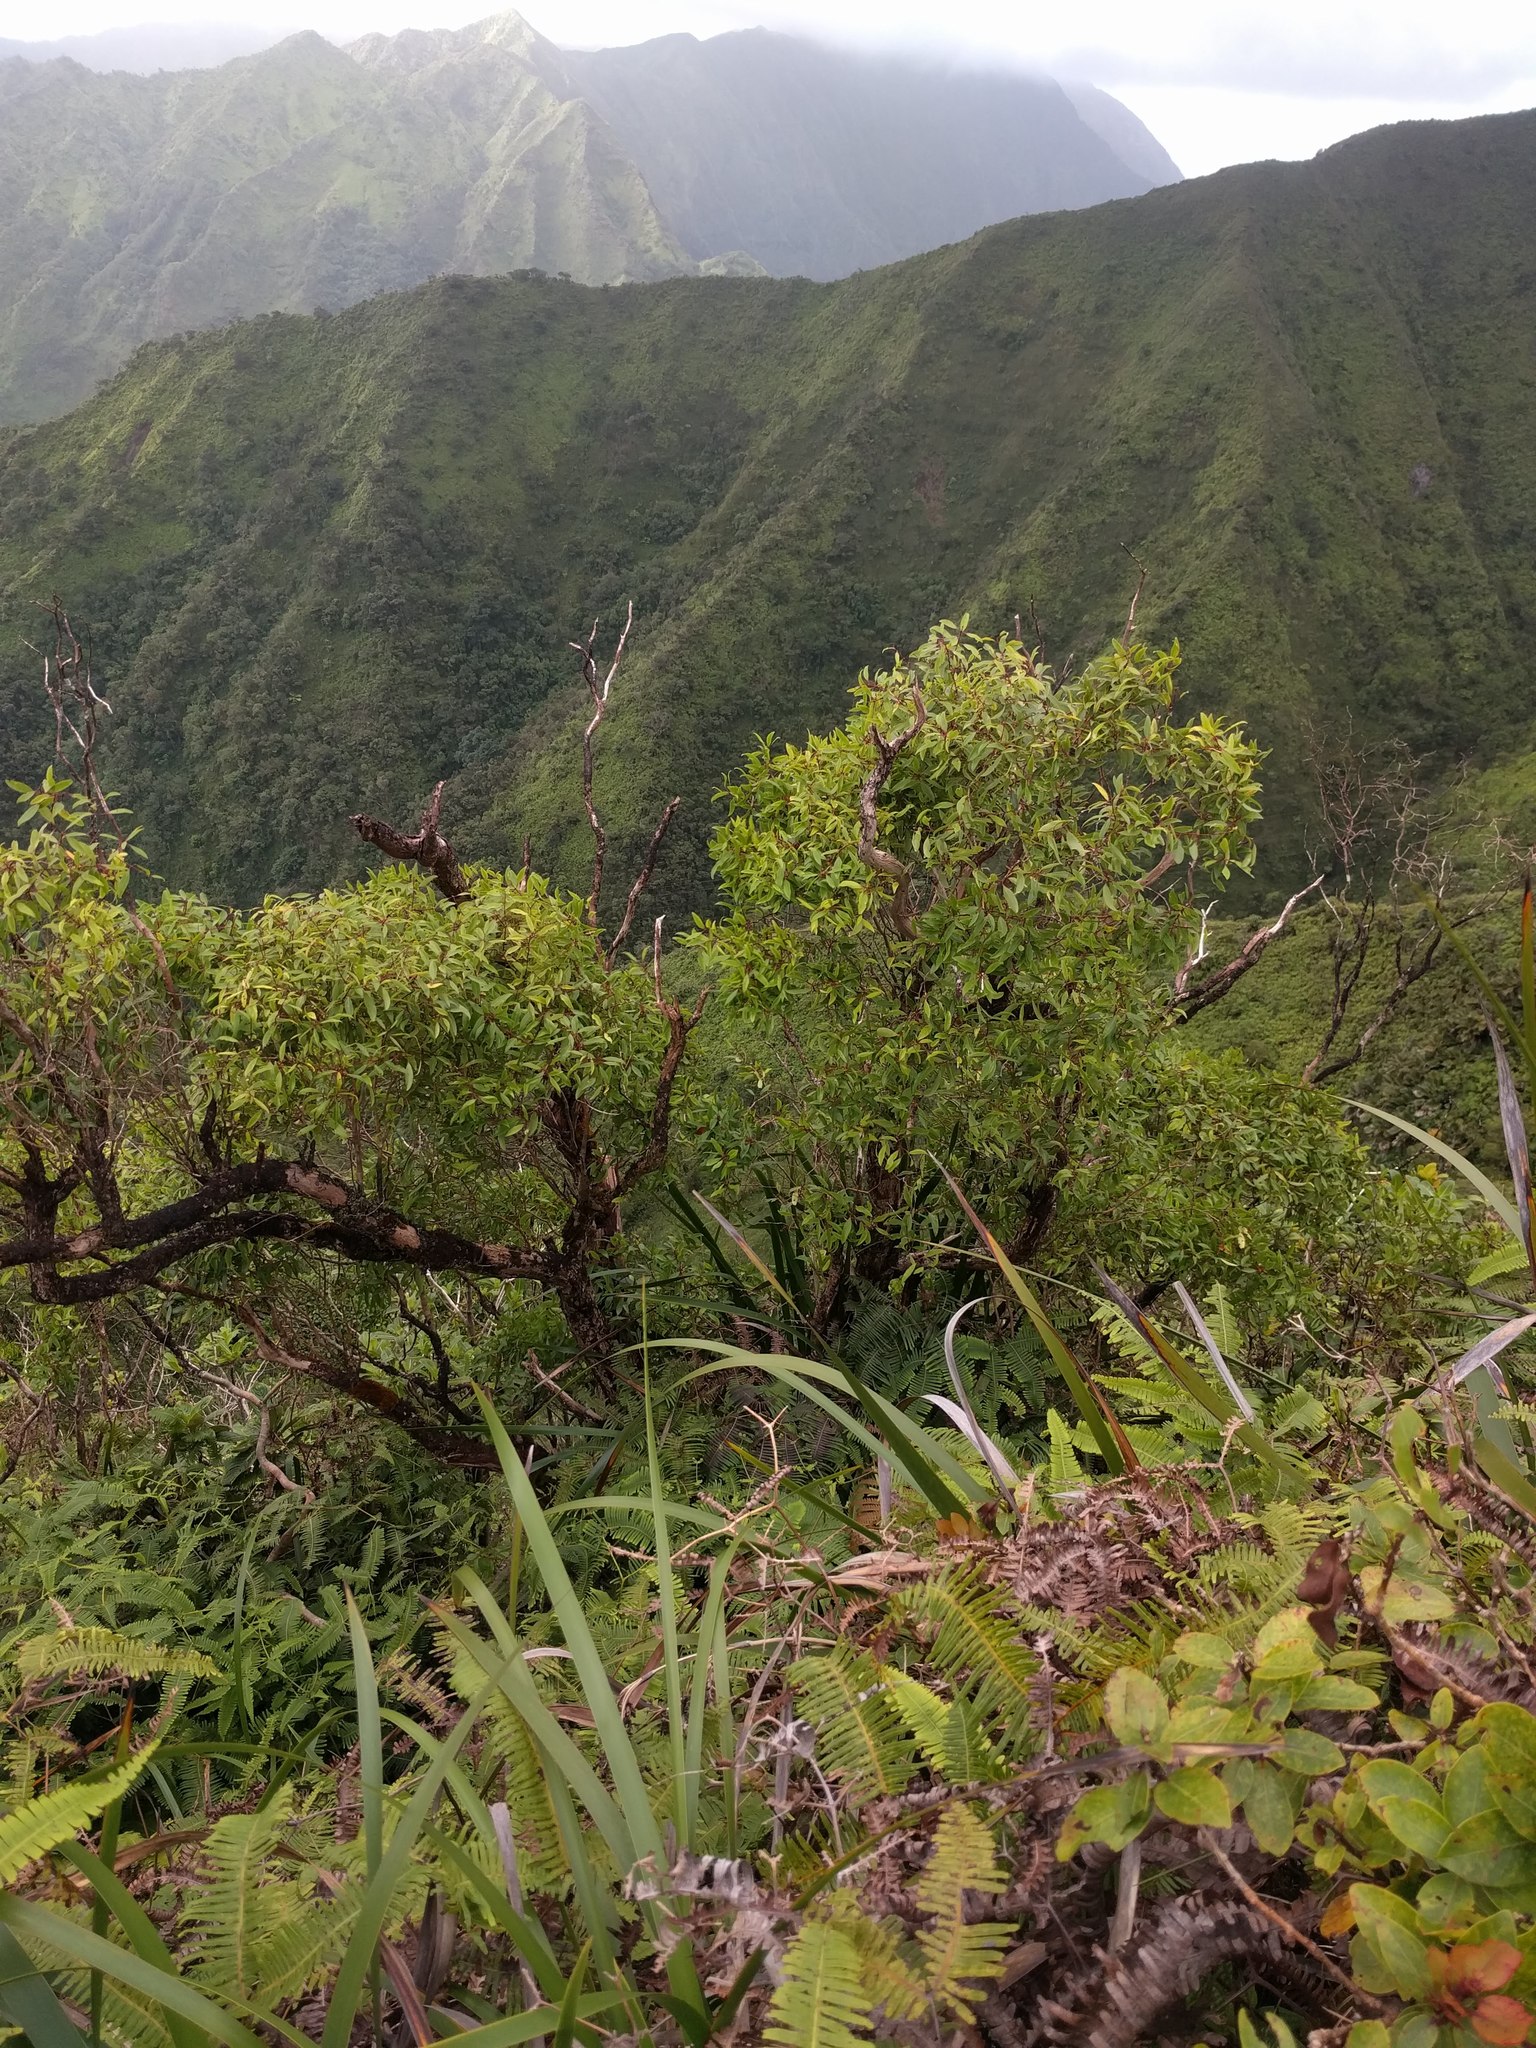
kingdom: Plantae
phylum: Tracheophyta
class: Magnoliopsida
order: Myrtales
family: Myrtaceae
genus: Metrosideros
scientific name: Metrosideros tremuloides
